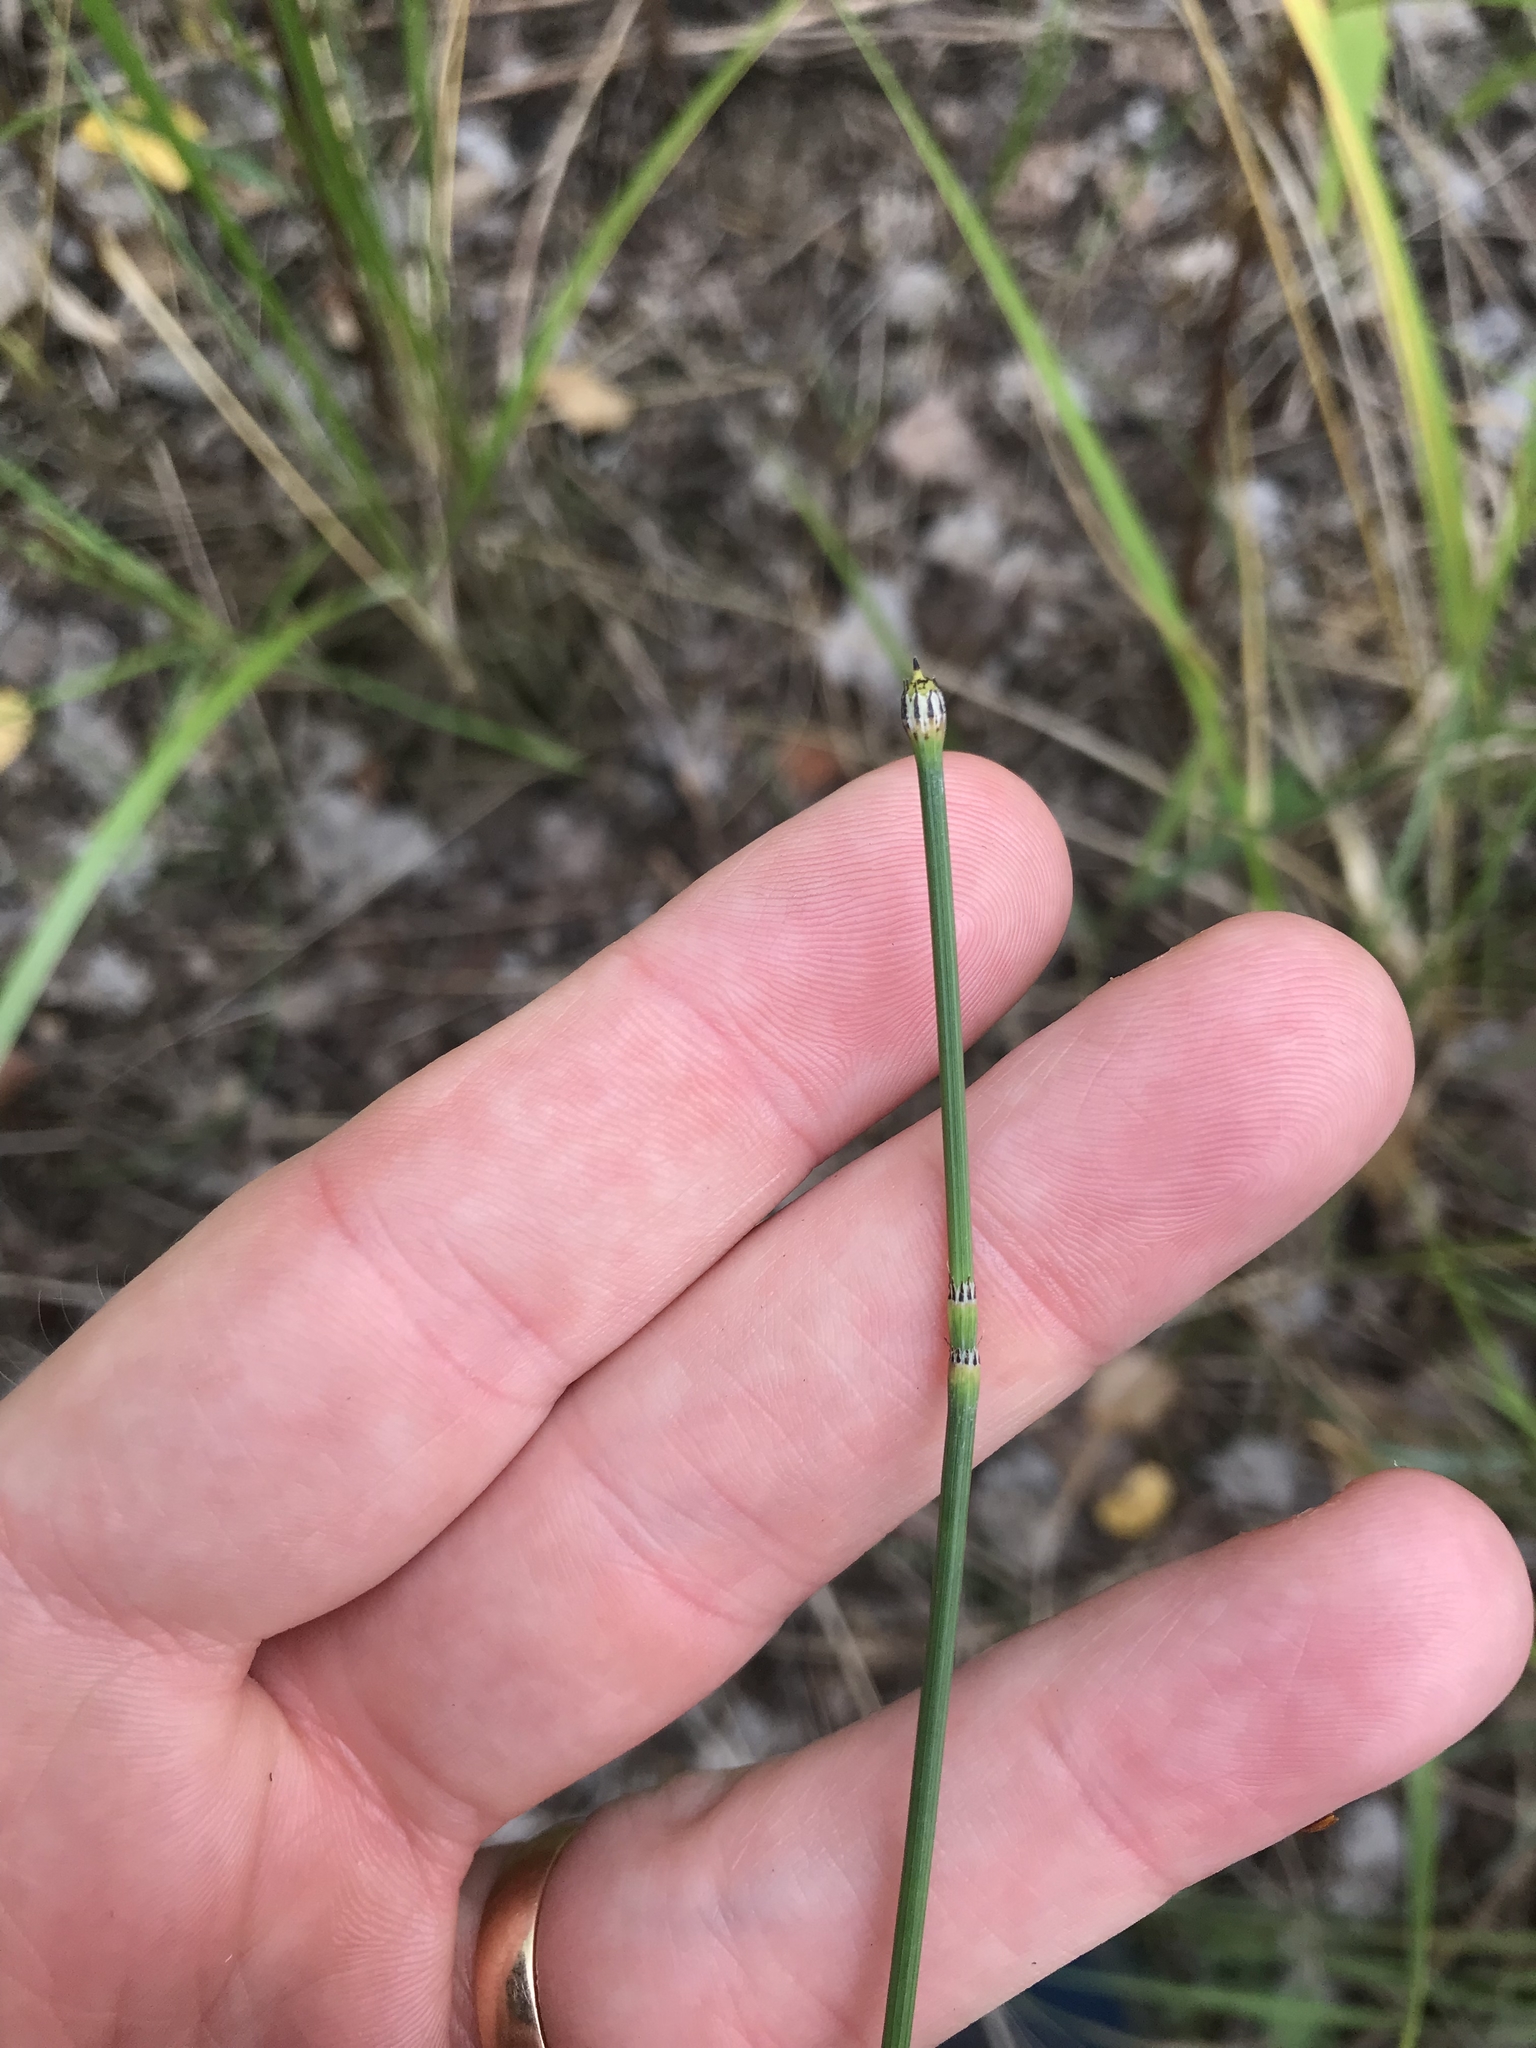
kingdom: Plantae
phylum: Tracheophyta
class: Polypodiopsida
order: Equisetales
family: Equisetaceae
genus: Equisetum
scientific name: Equisetum variegatum
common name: Variegated horsetail
